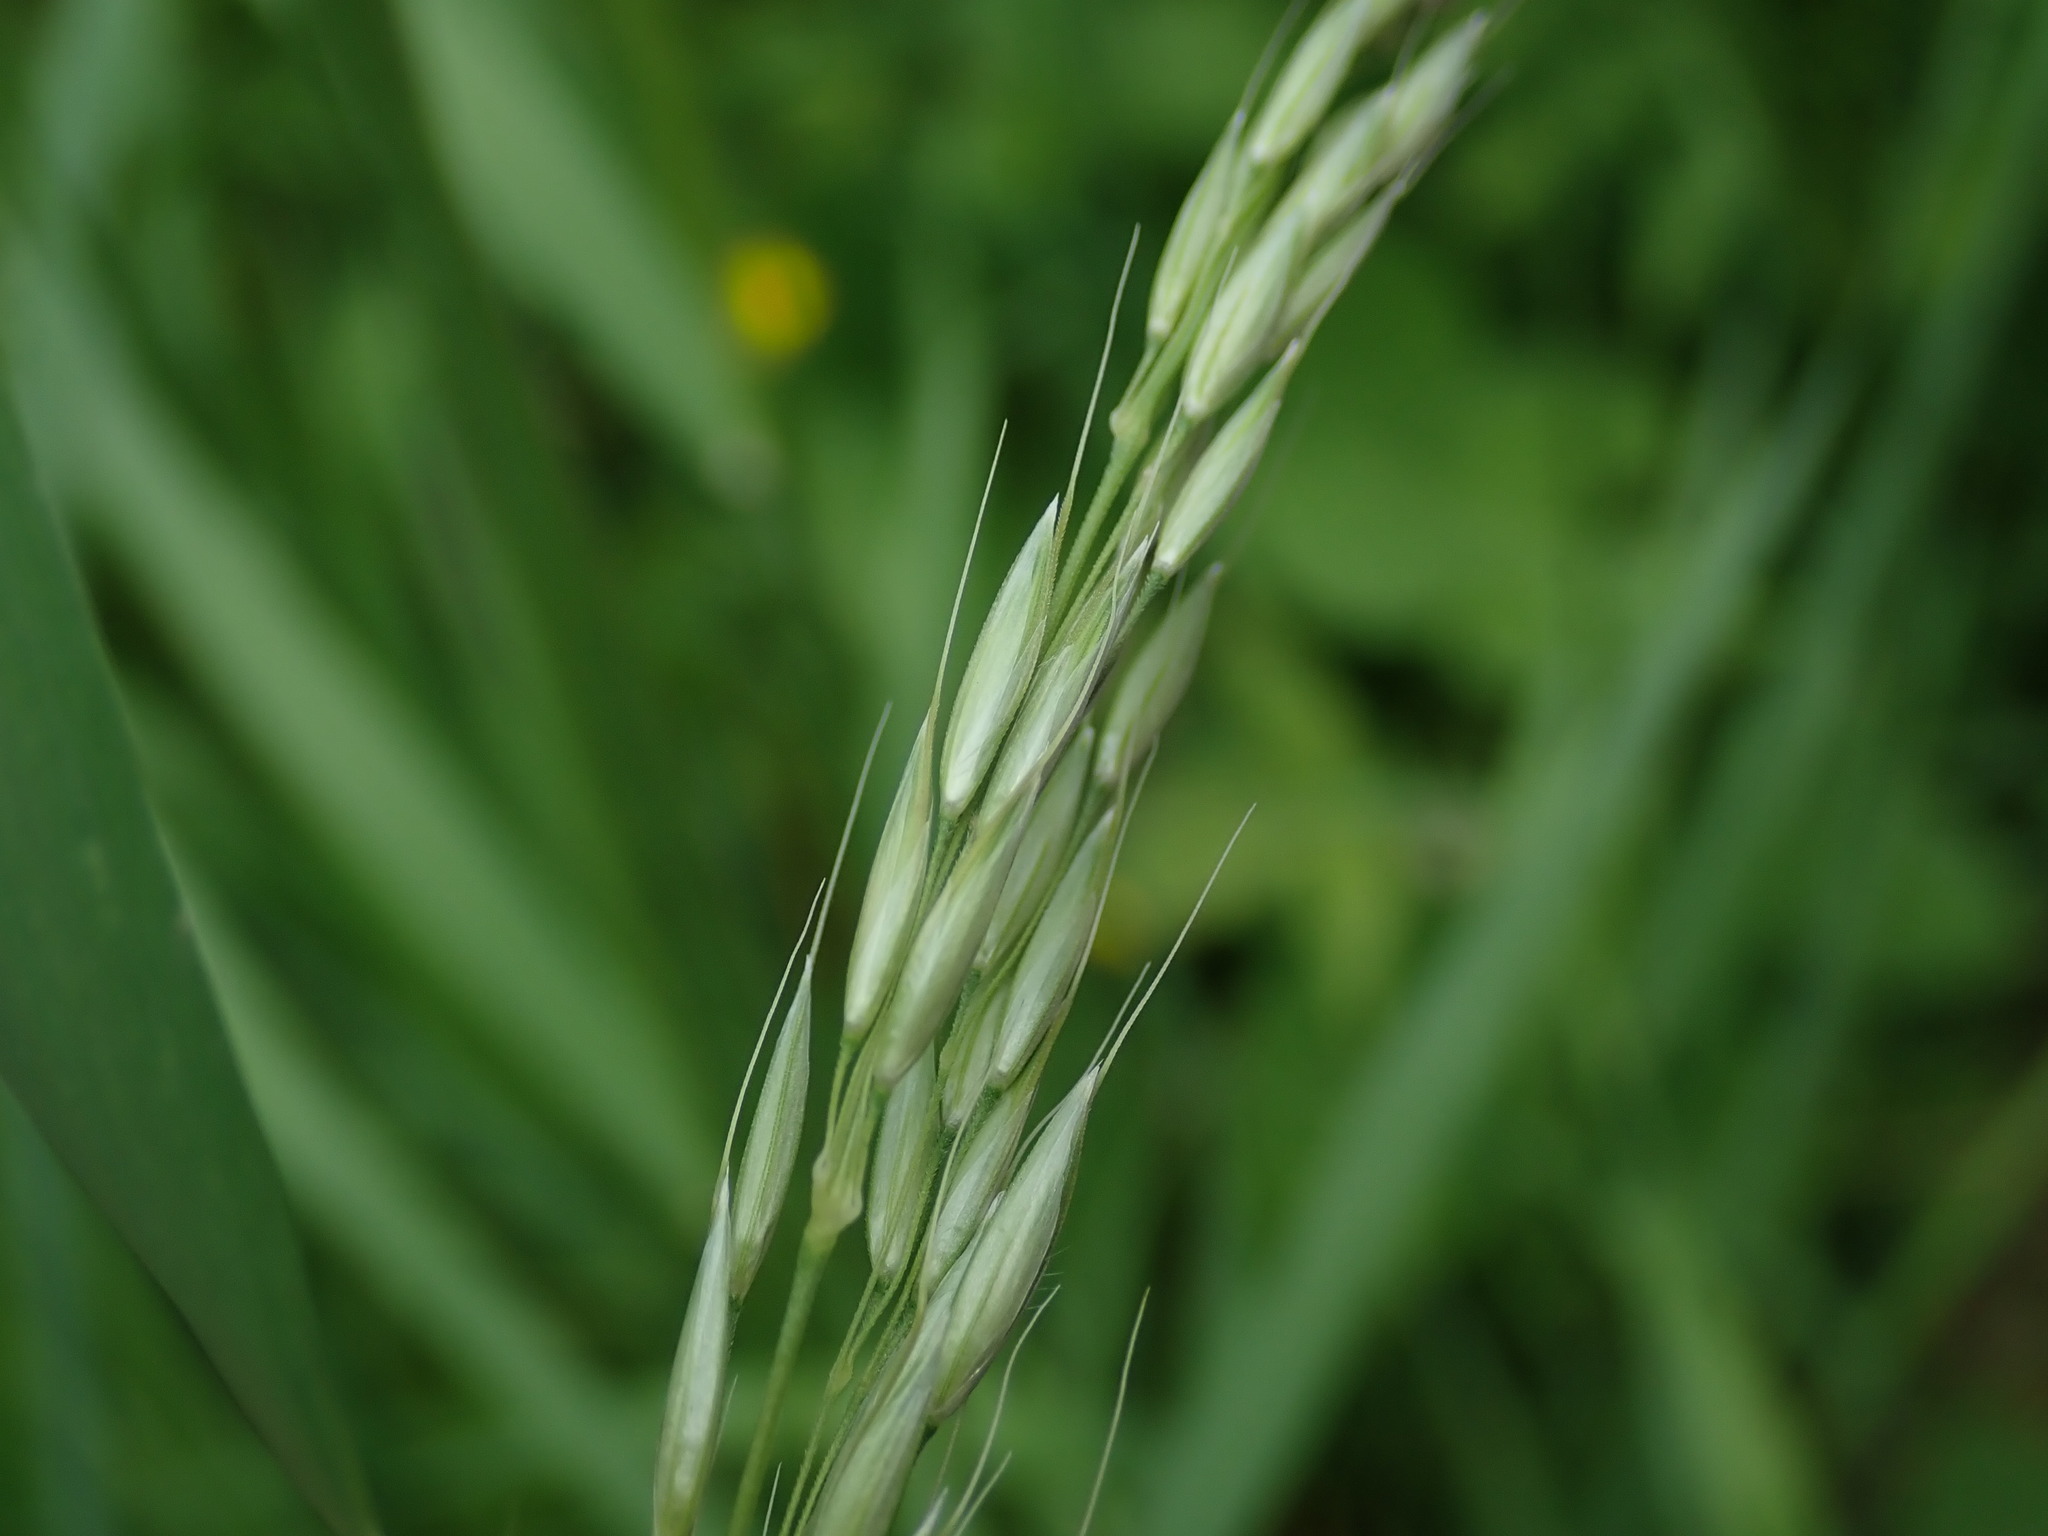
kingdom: Plantae
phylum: Tracheophyta
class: Liliopsida
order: Poales
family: Poaceae
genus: Arrhenatherum
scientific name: Arrhenatherum elatius
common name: Tall oatgrass
